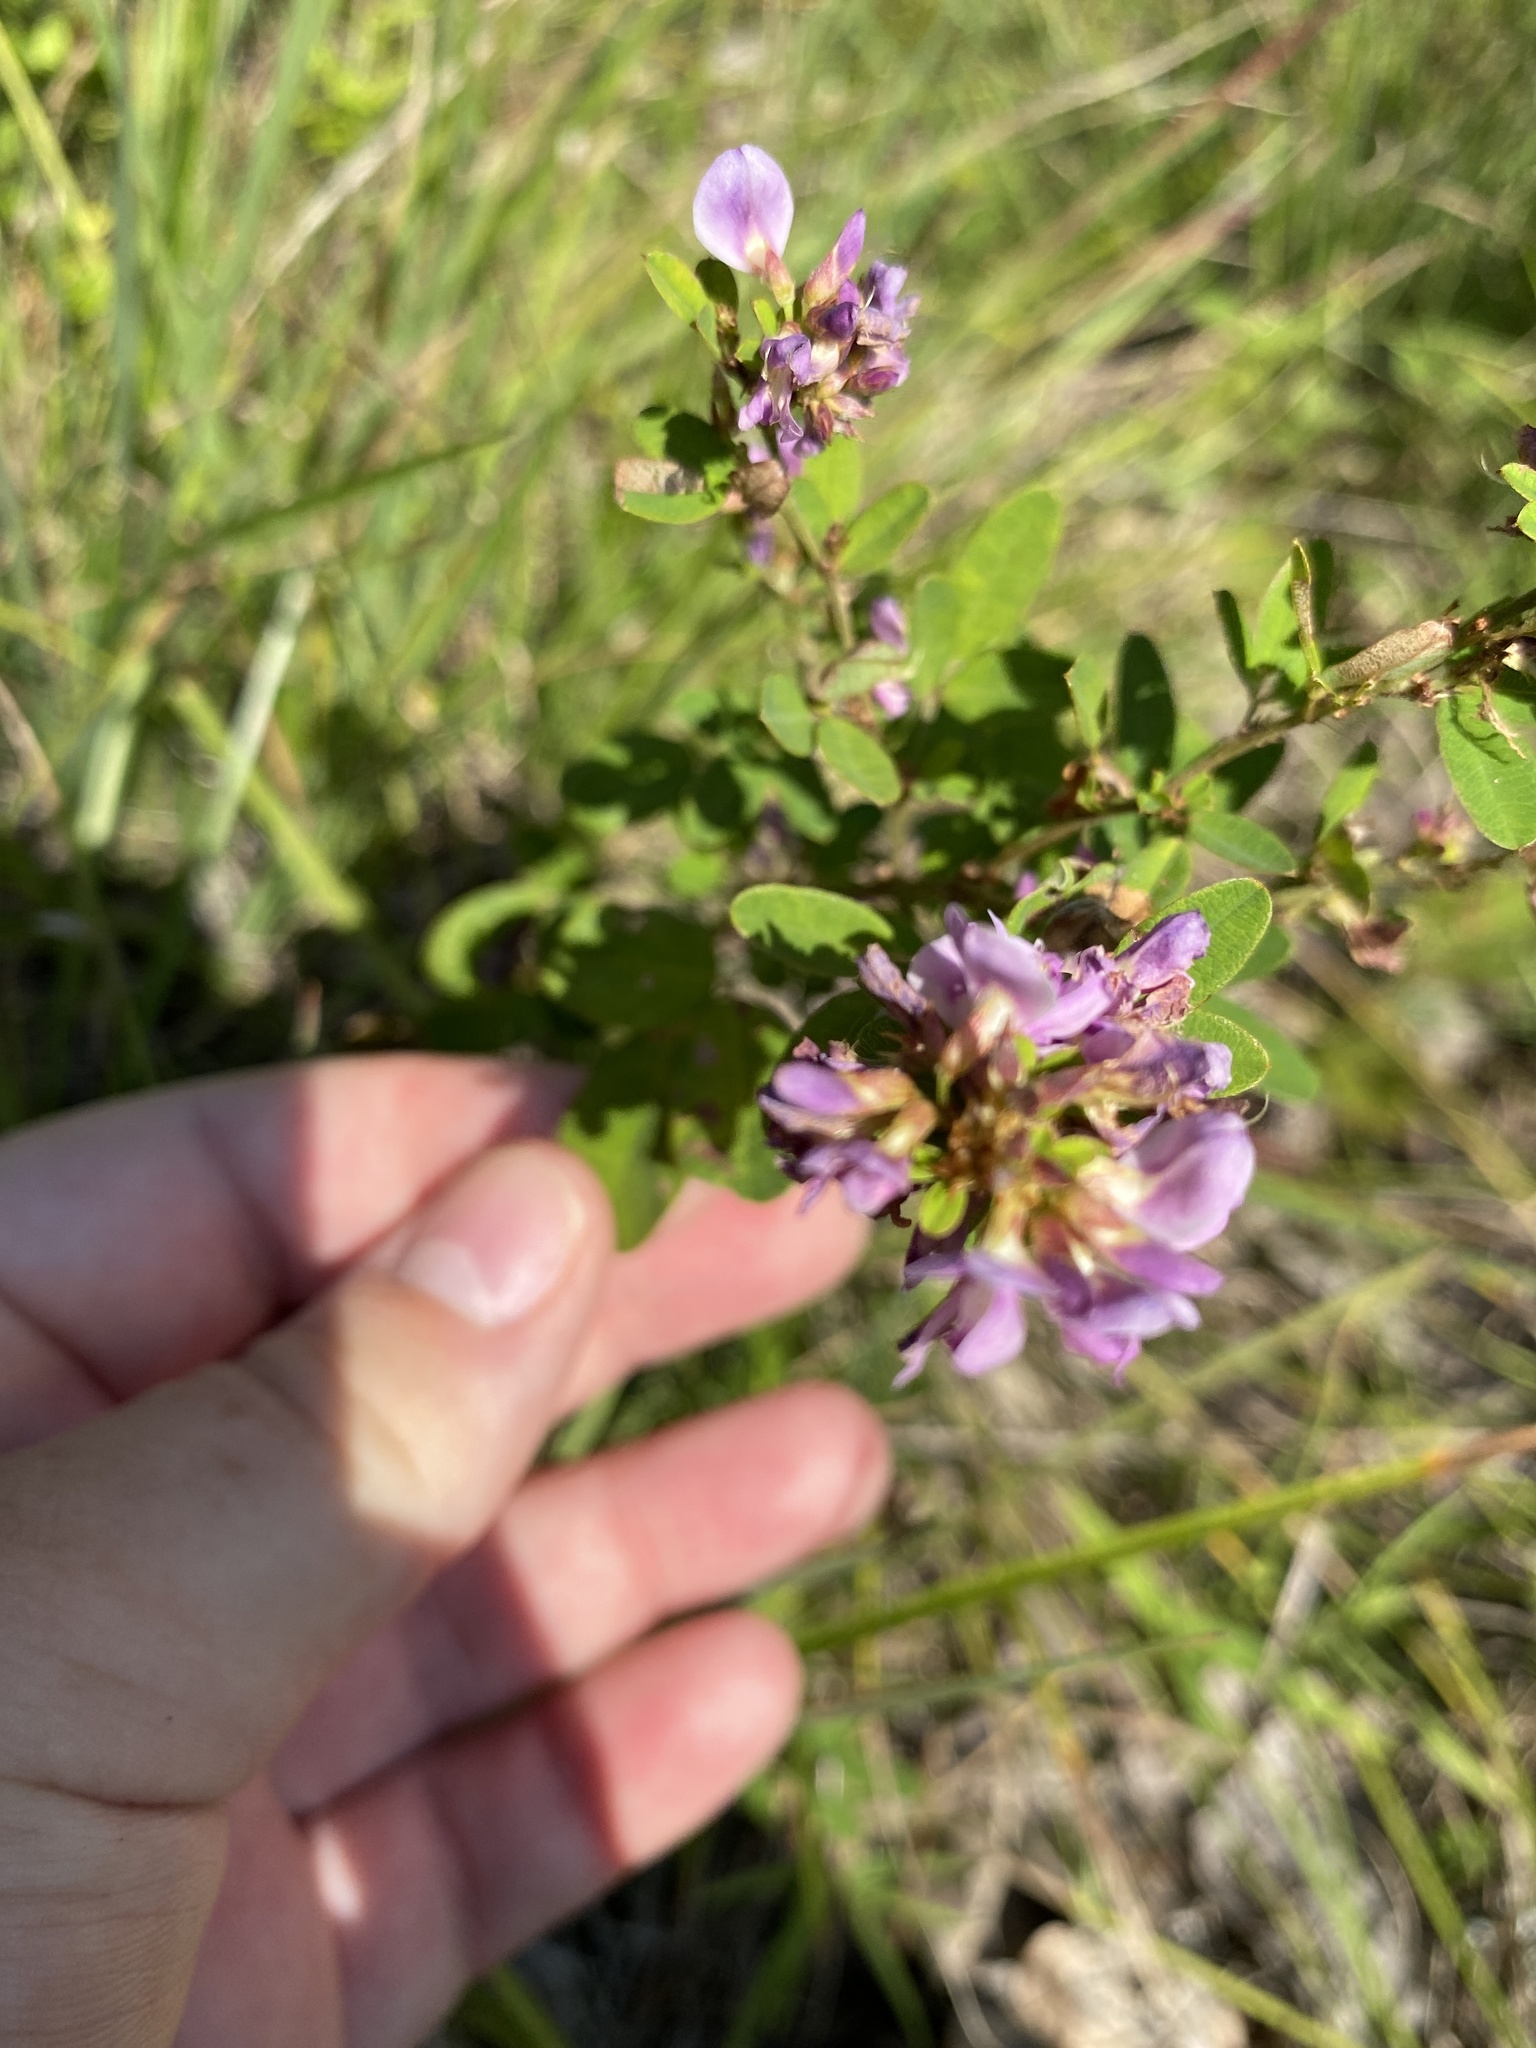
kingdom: Plantae
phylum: Tracheophyta
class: Magnoliopsida
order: Fabales
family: Fabaceae
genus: Lespedeza
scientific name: Lespedeza violacea
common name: Wand bush-clover
